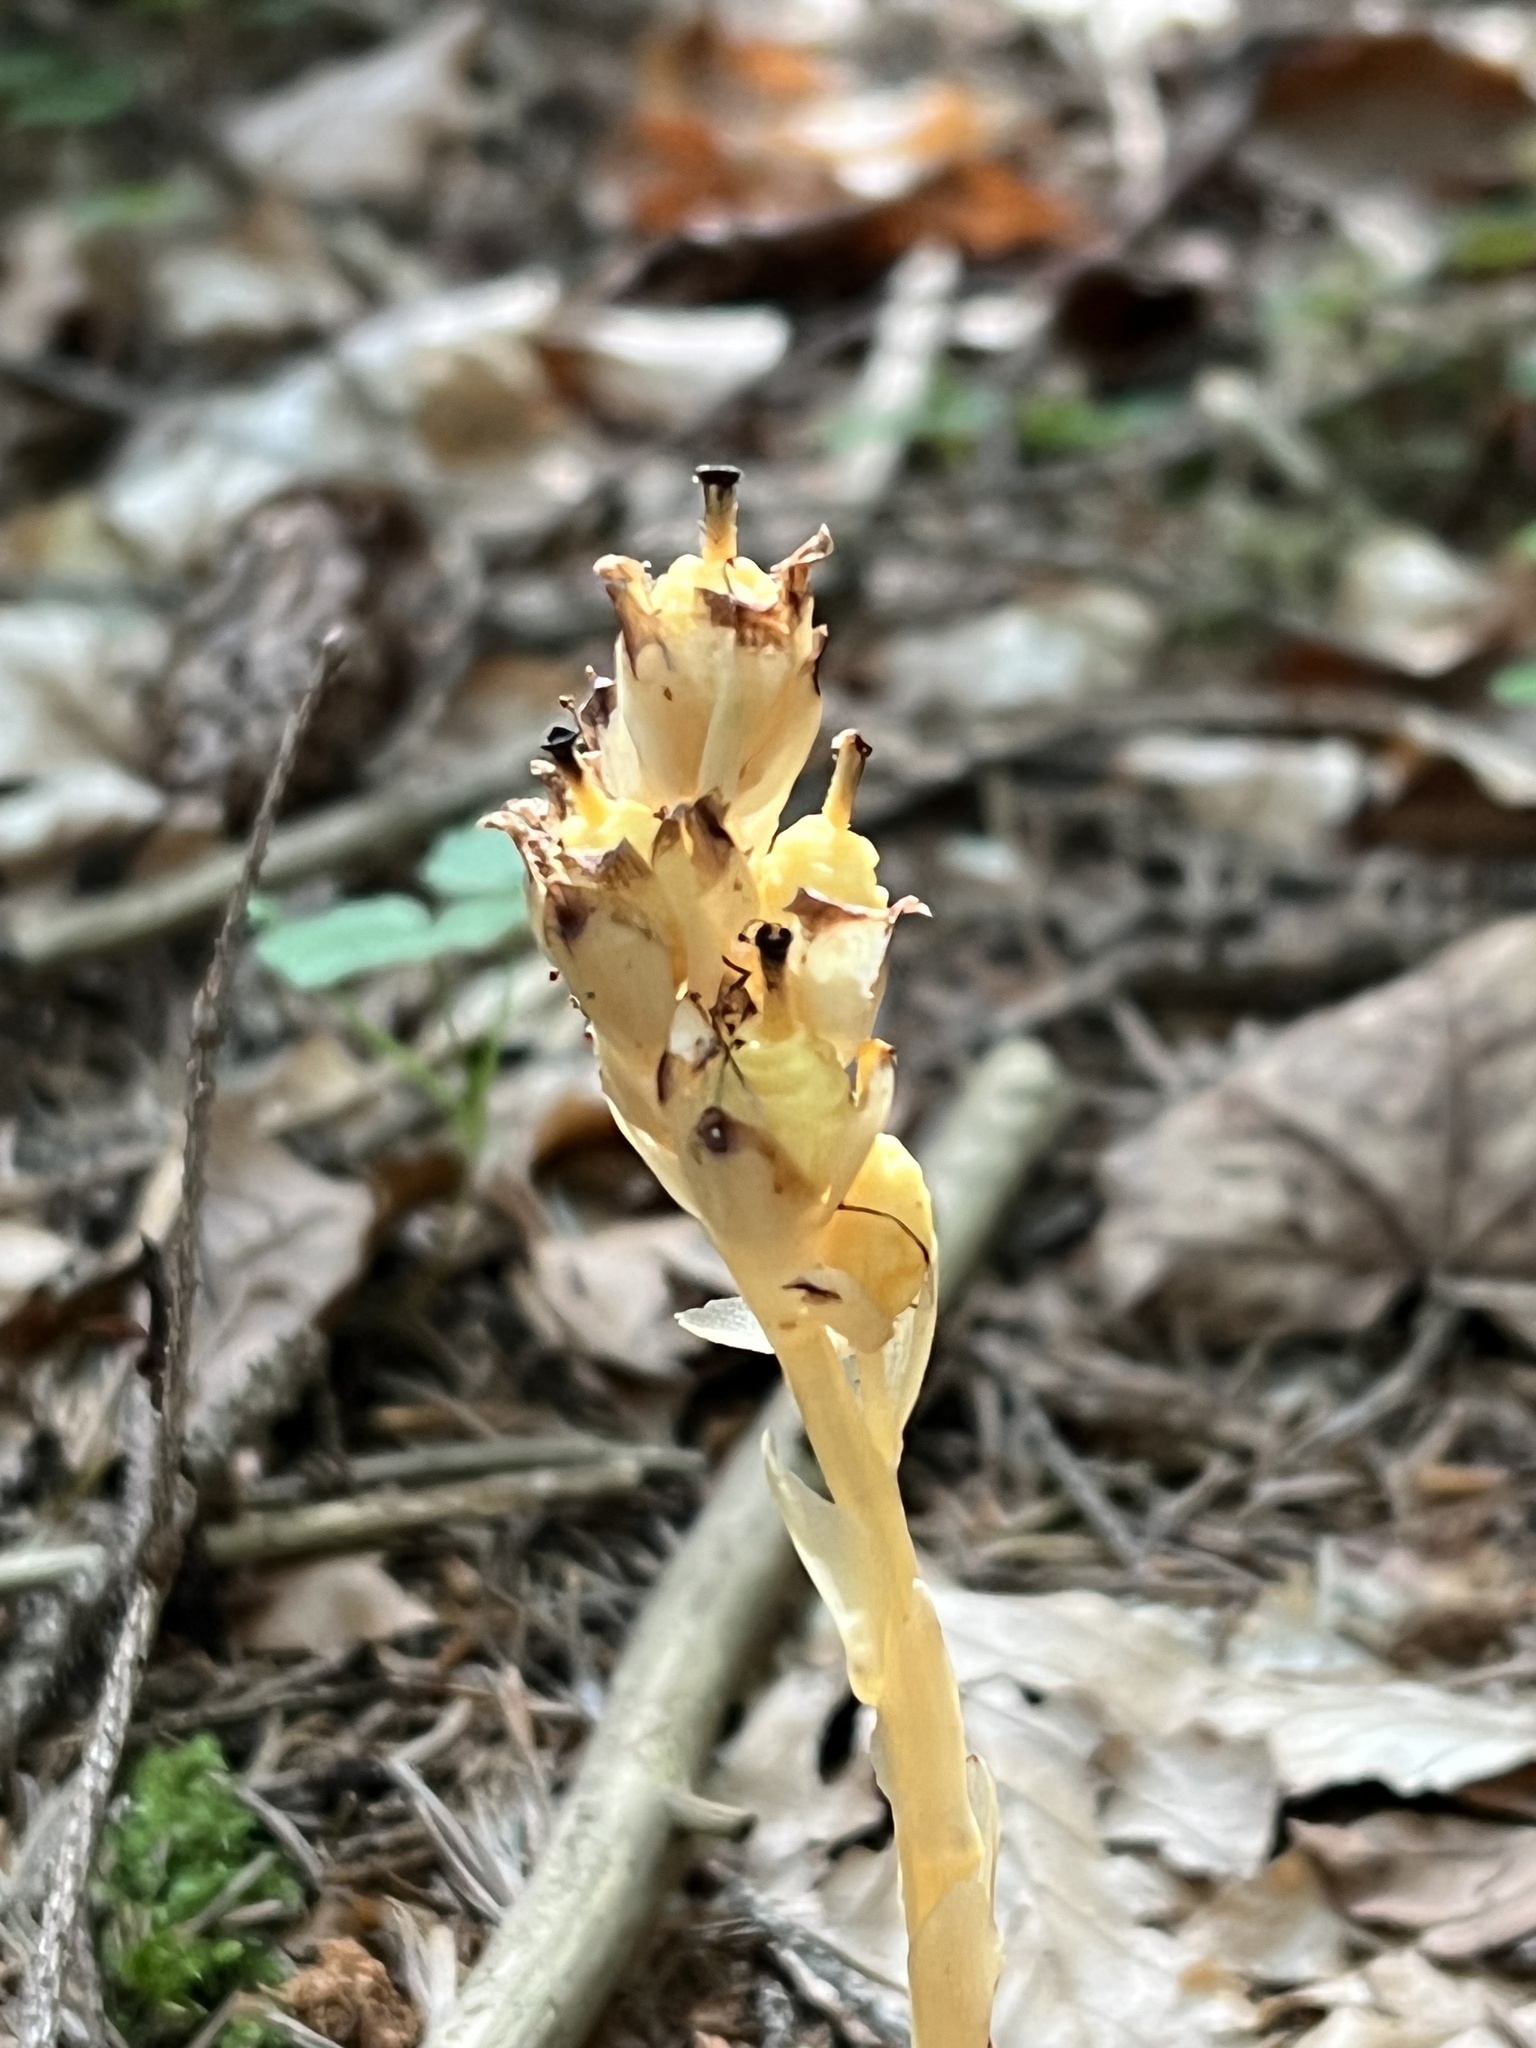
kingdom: Plantae
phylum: Tracheophyta
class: Magnoliopsida
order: Ericales
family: Ericaceae
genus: Hypopitys
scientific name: Hypopitys monotropa
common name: Yellow bird's-nest
